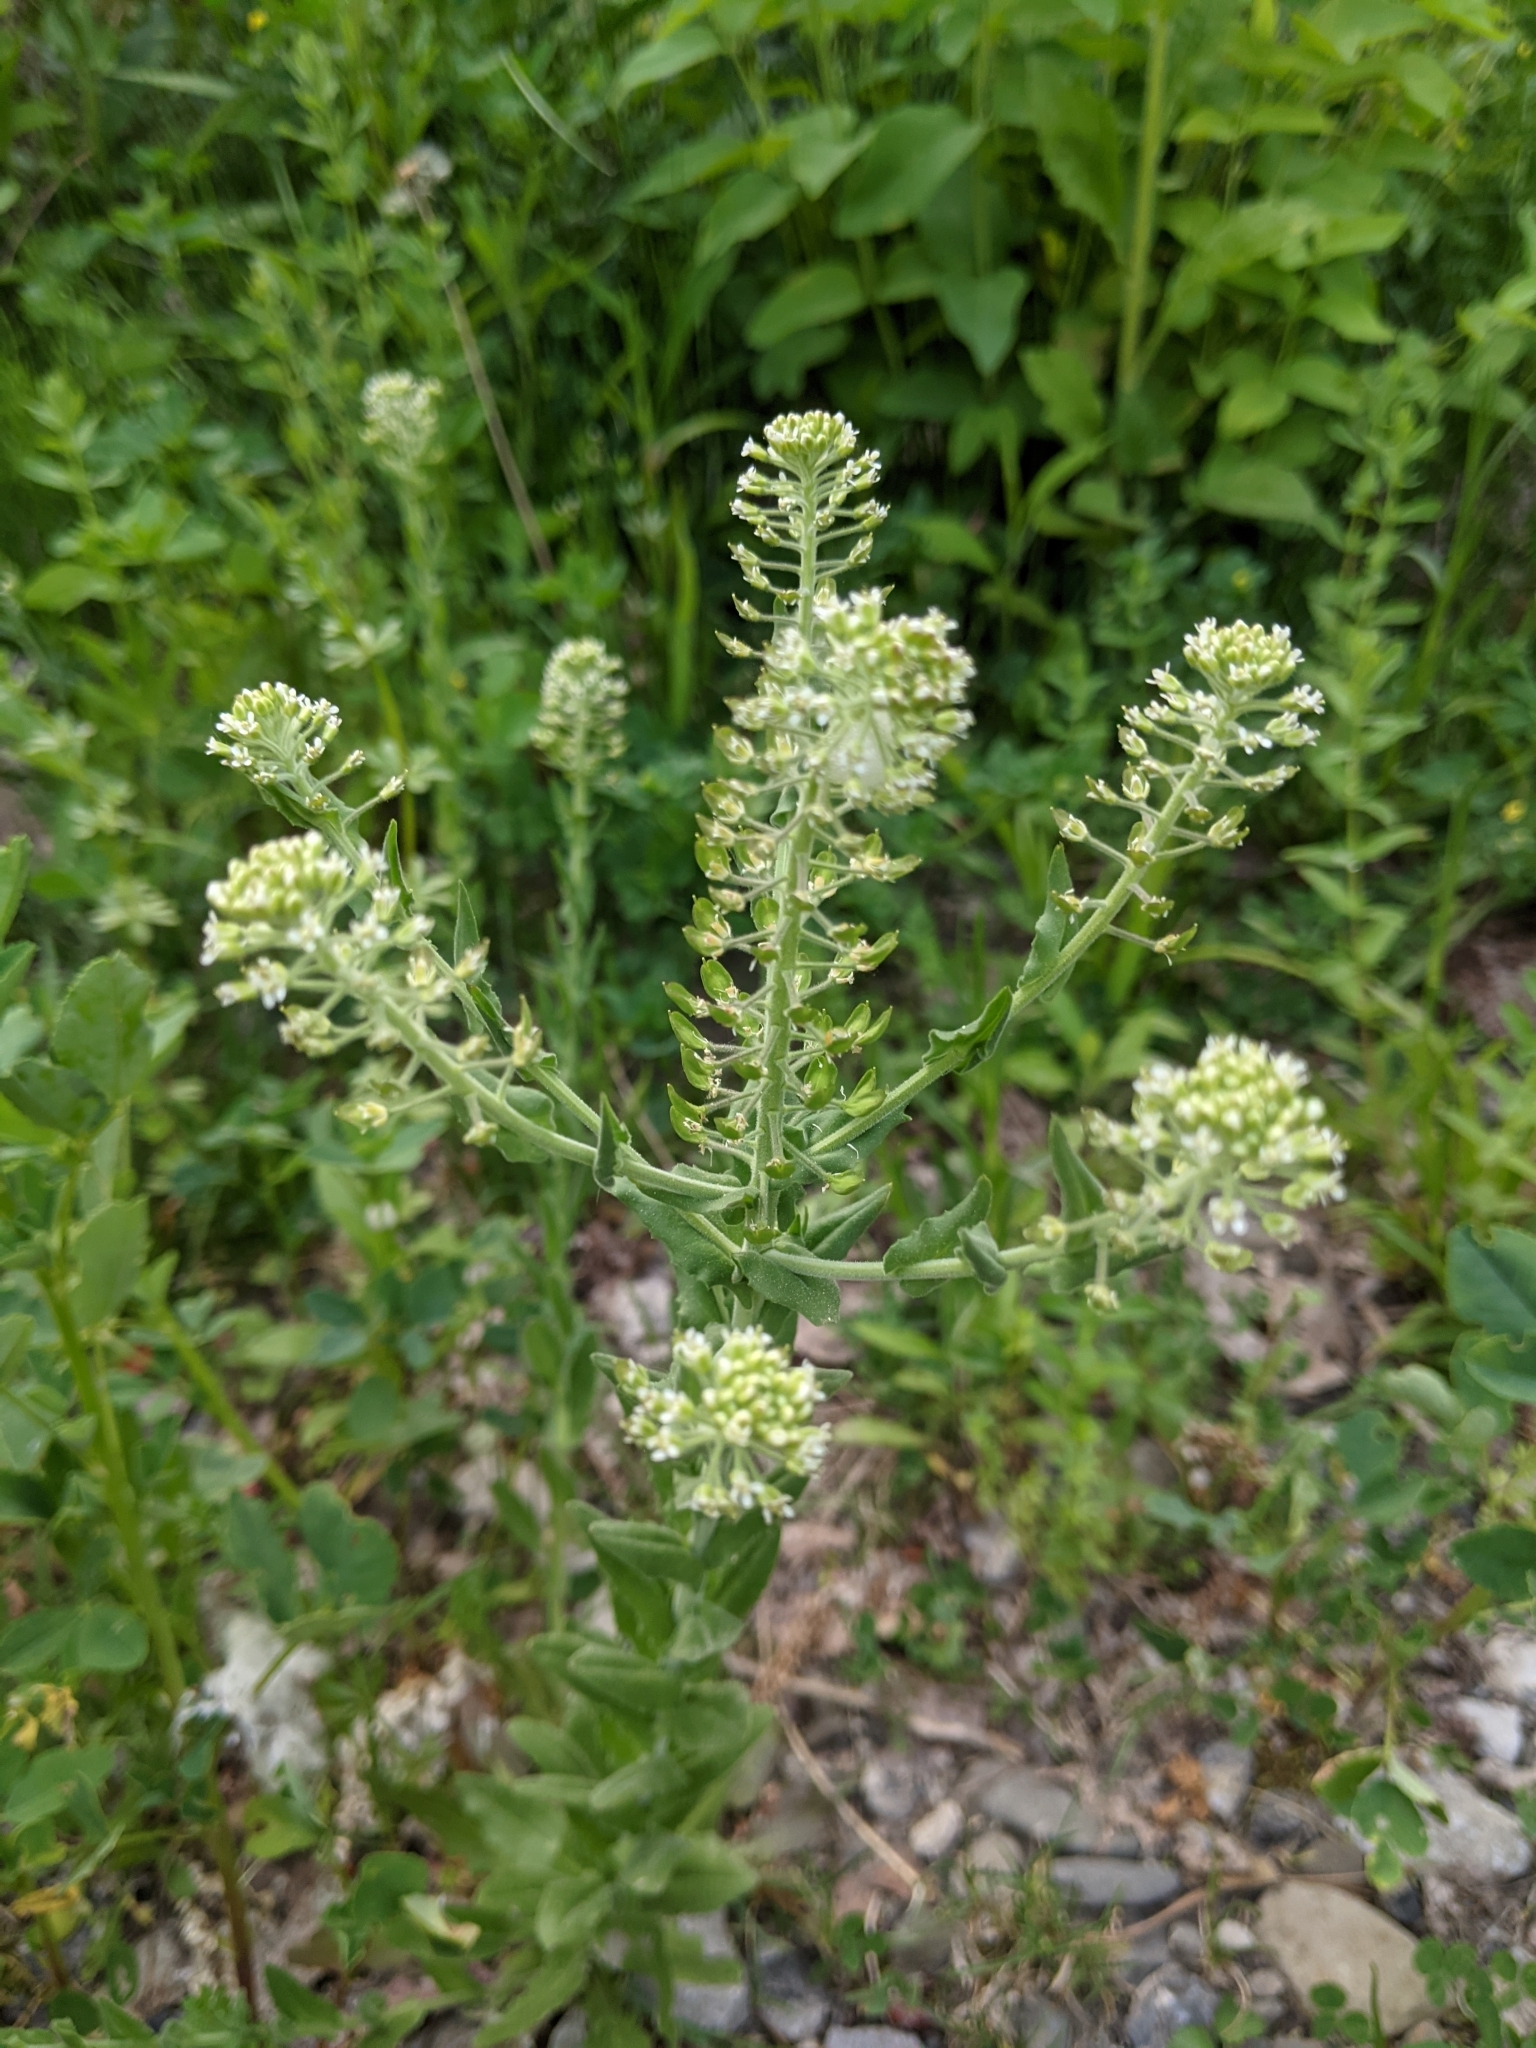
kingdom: Plantae
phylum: Tracheophyta
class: Magnoliopsida
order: Brassicales
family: Brassicaceae
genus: Lepidium
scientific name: Lepidium campestre
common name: Field pepperwort
